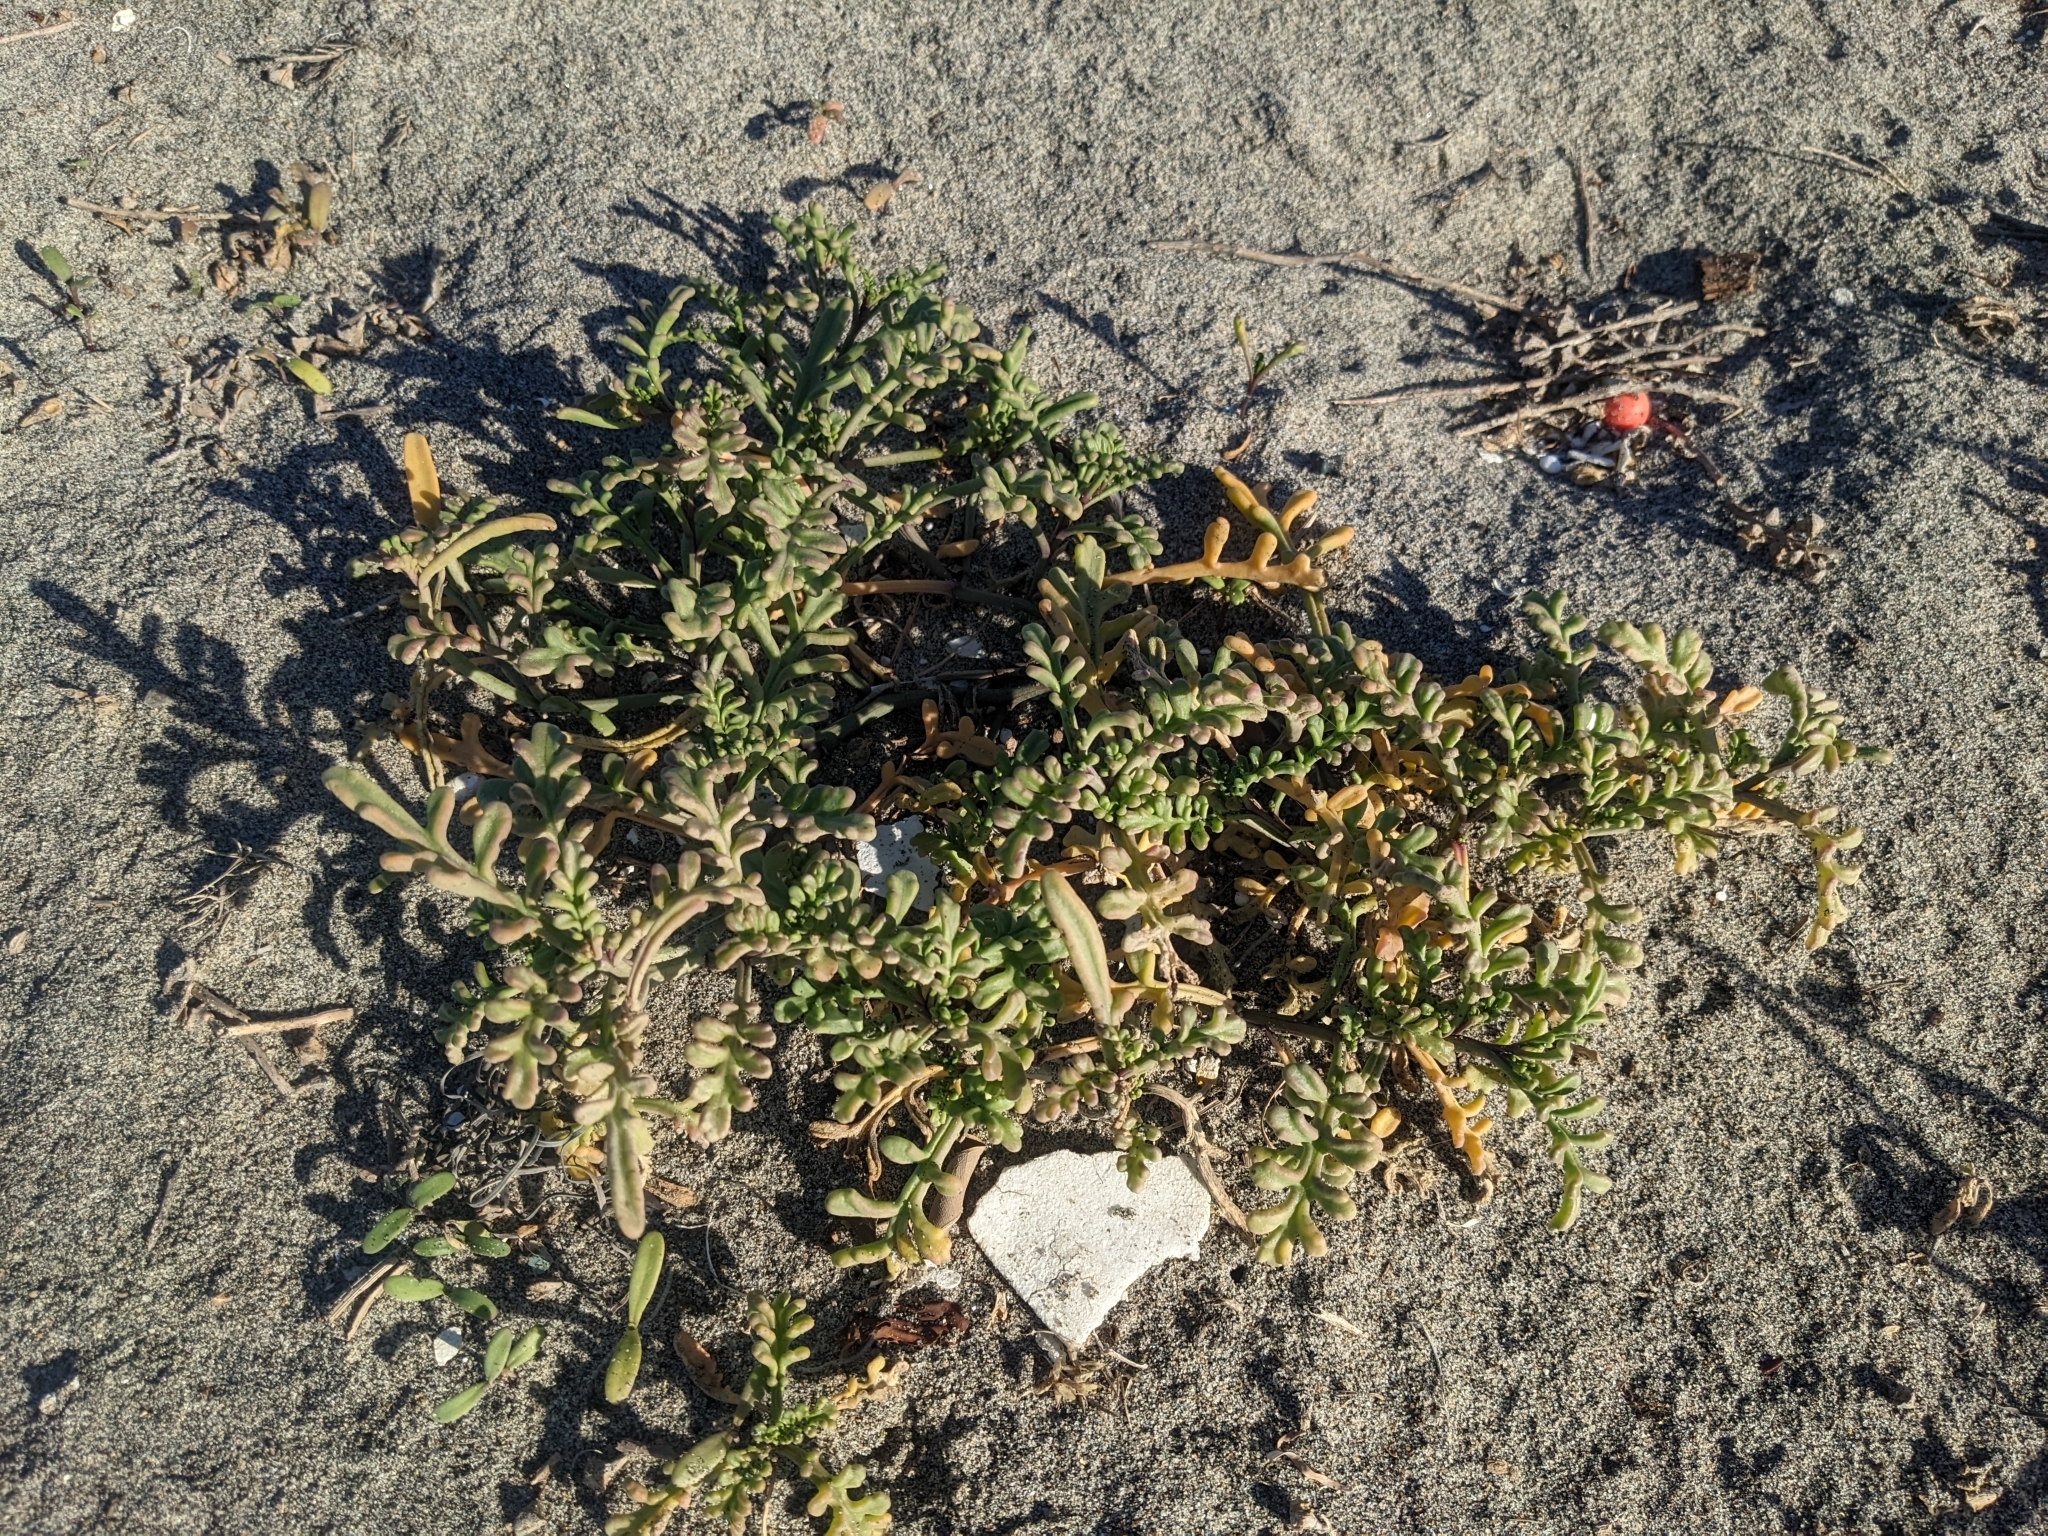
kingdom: Plantae
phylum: Tracheophyta
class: Magnoliopsida
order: Brassicales
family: Brassicaceae
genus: Cakile
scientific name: Cakile maritima
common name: Sea rocket
